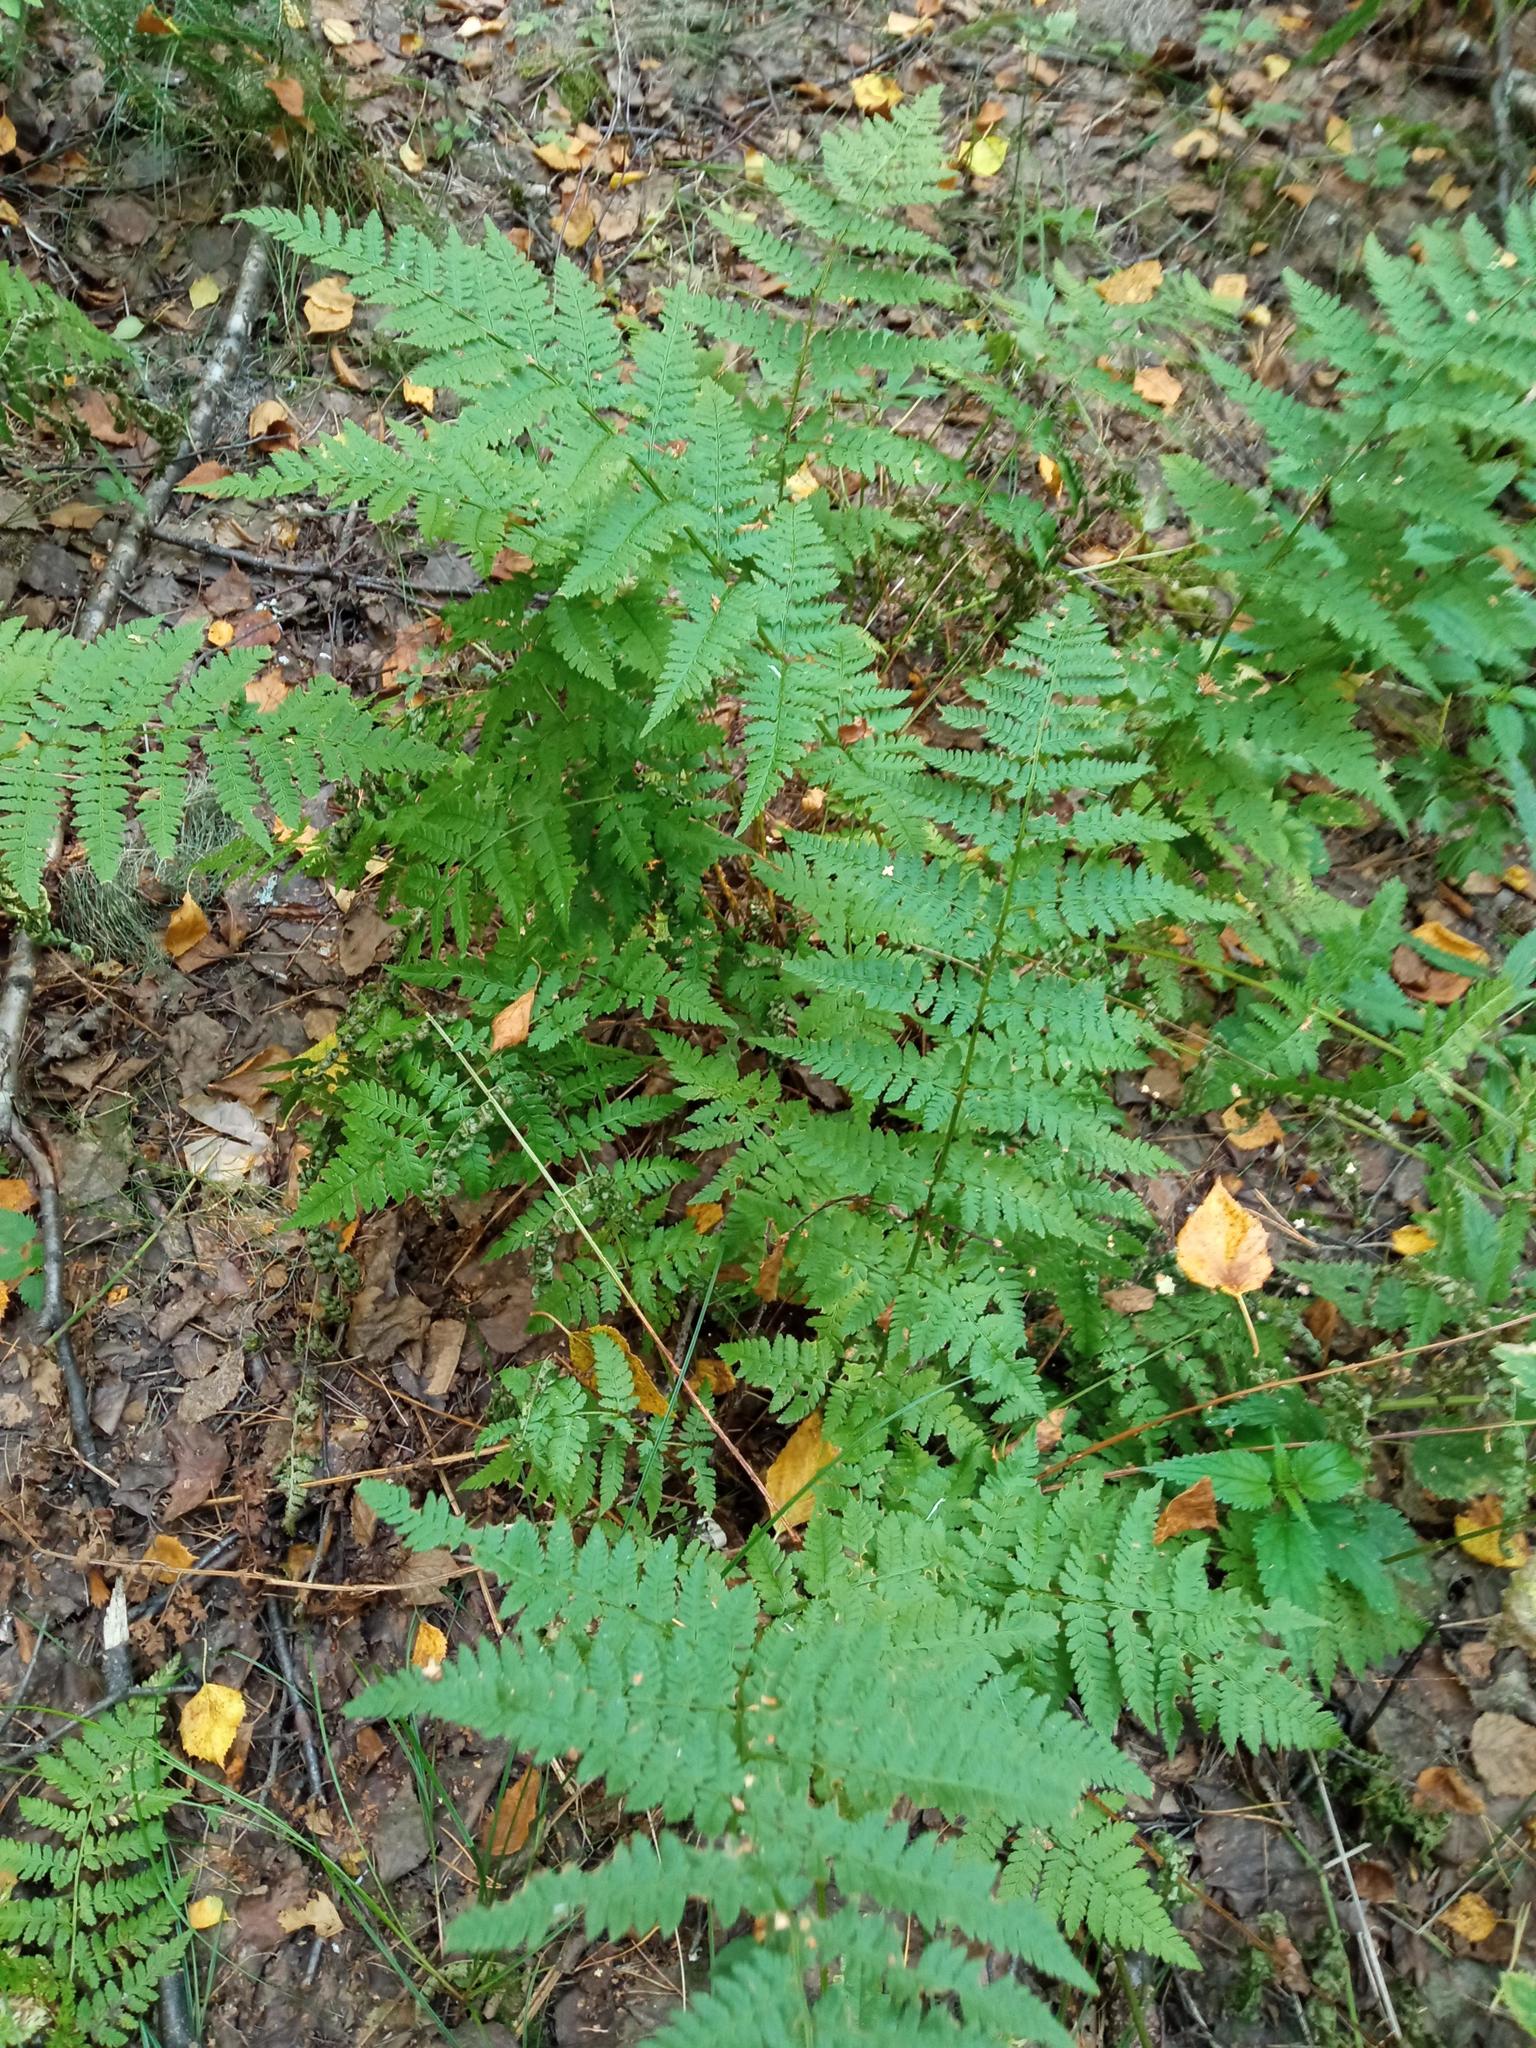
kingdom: Plantae
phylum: Tracheophyta
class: Polypodiopsida
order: Polypodiales
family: Dryopteridaceae
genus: Dryopteris
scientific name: Dryopteris carthusiana
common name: Narrow buckler-fern
